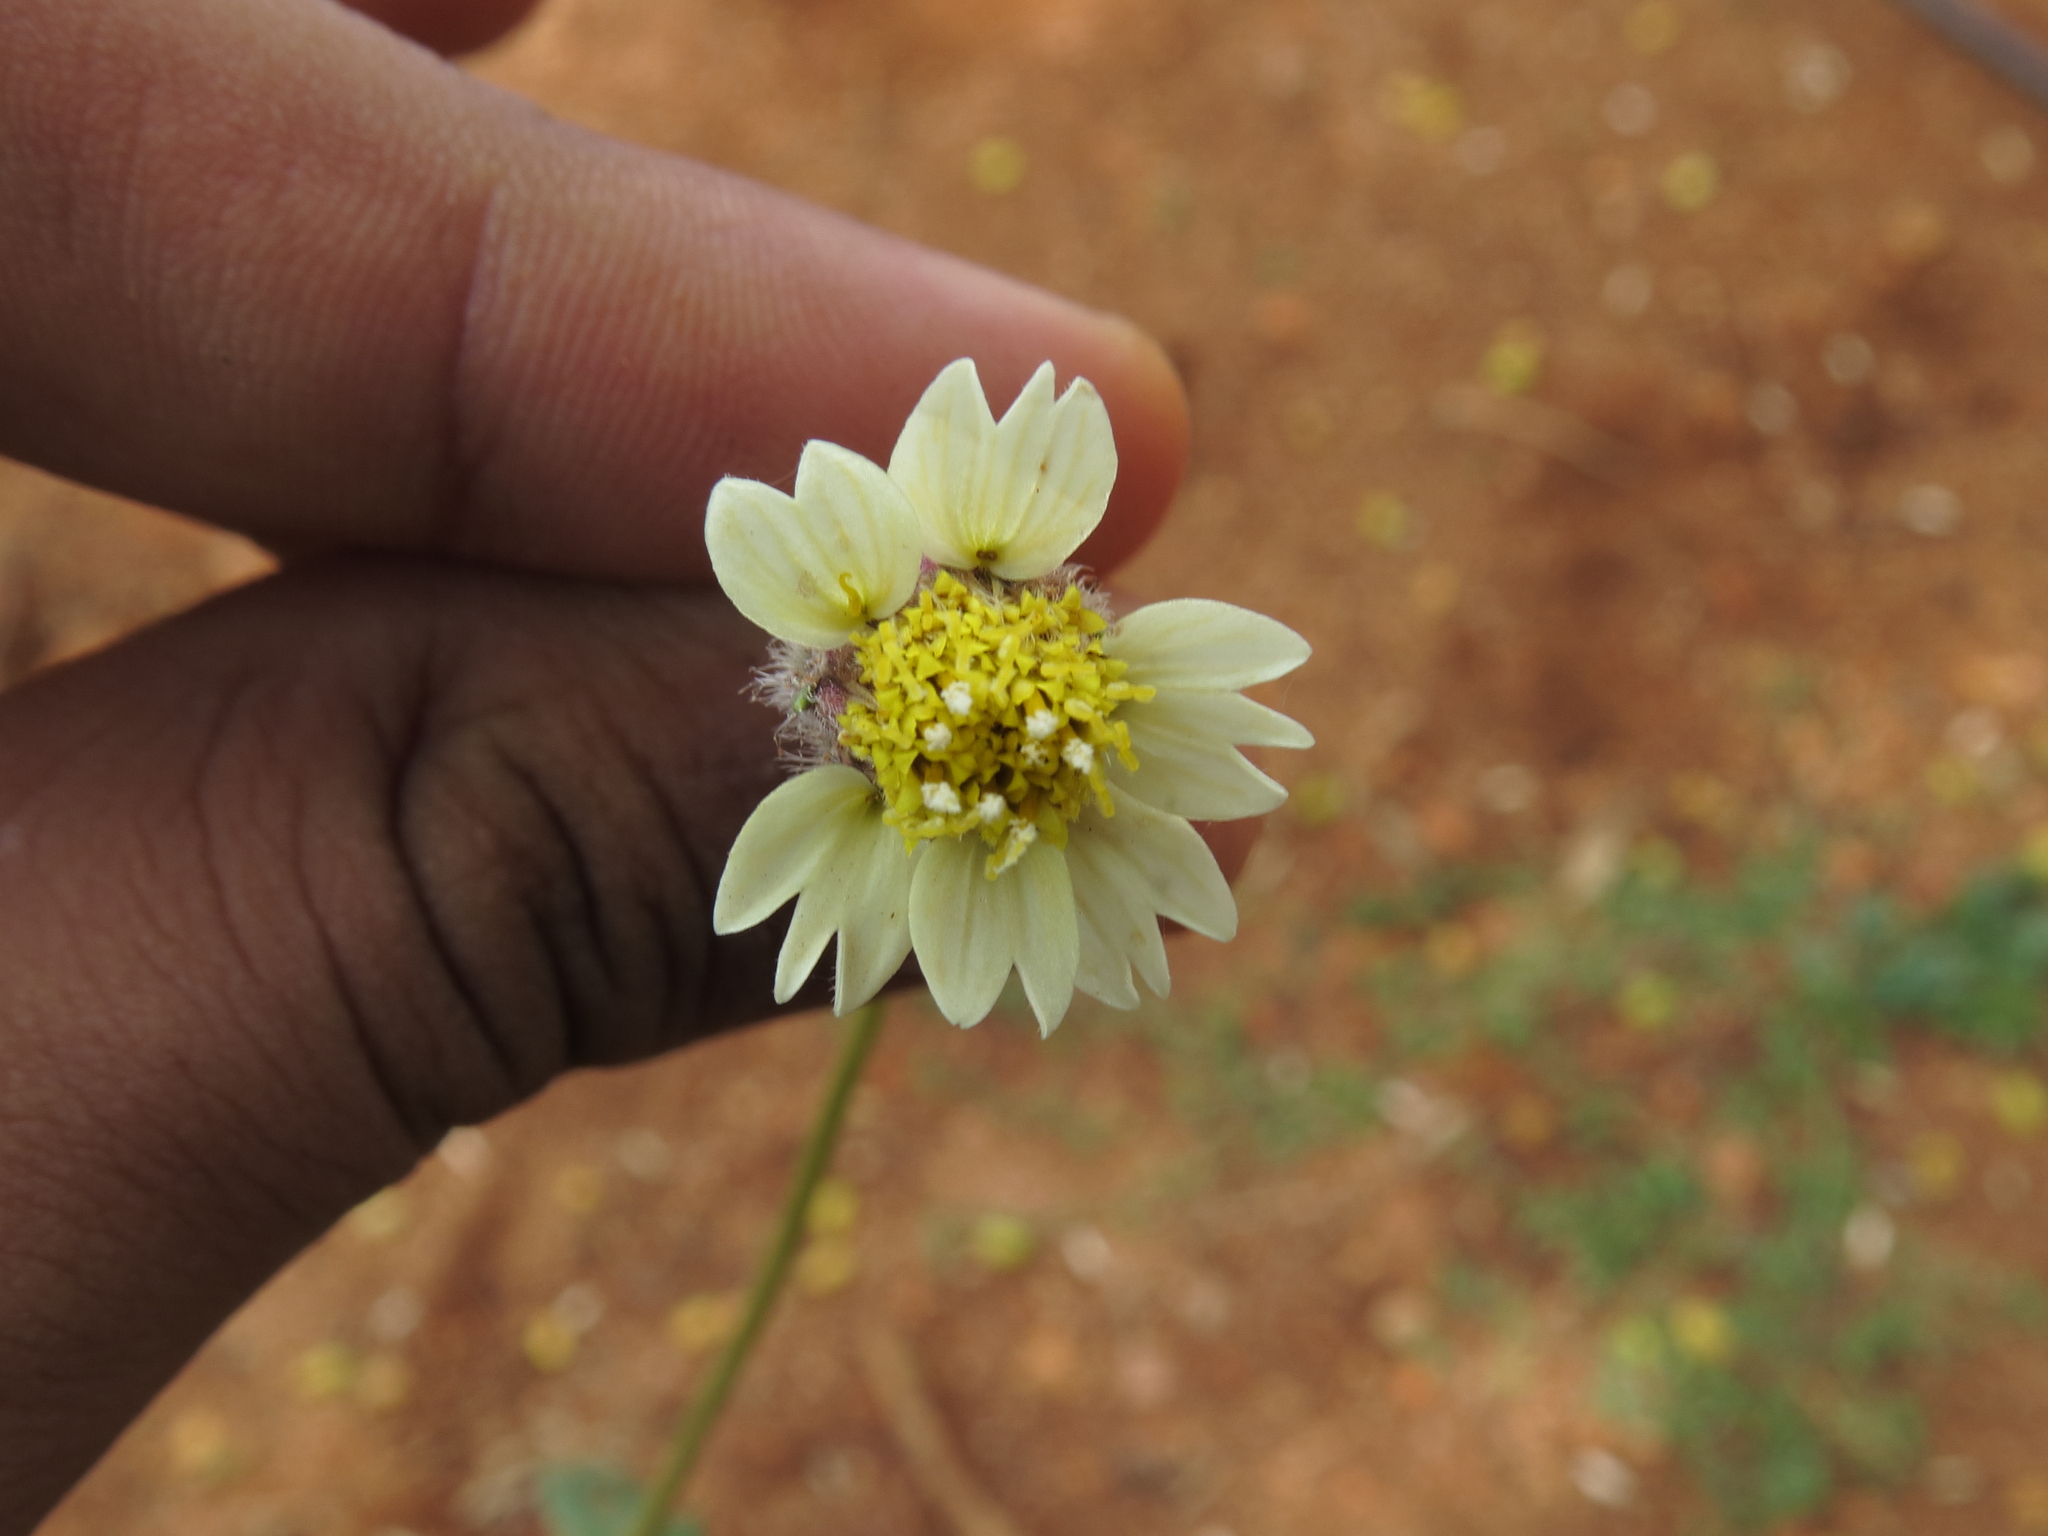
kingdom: Plantae
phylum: Tracheophyta
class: Magnoliopsida
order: Asterales
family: Asteraceae
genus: Tridax
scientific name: Tridax procumbens
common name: Coatbuttons
